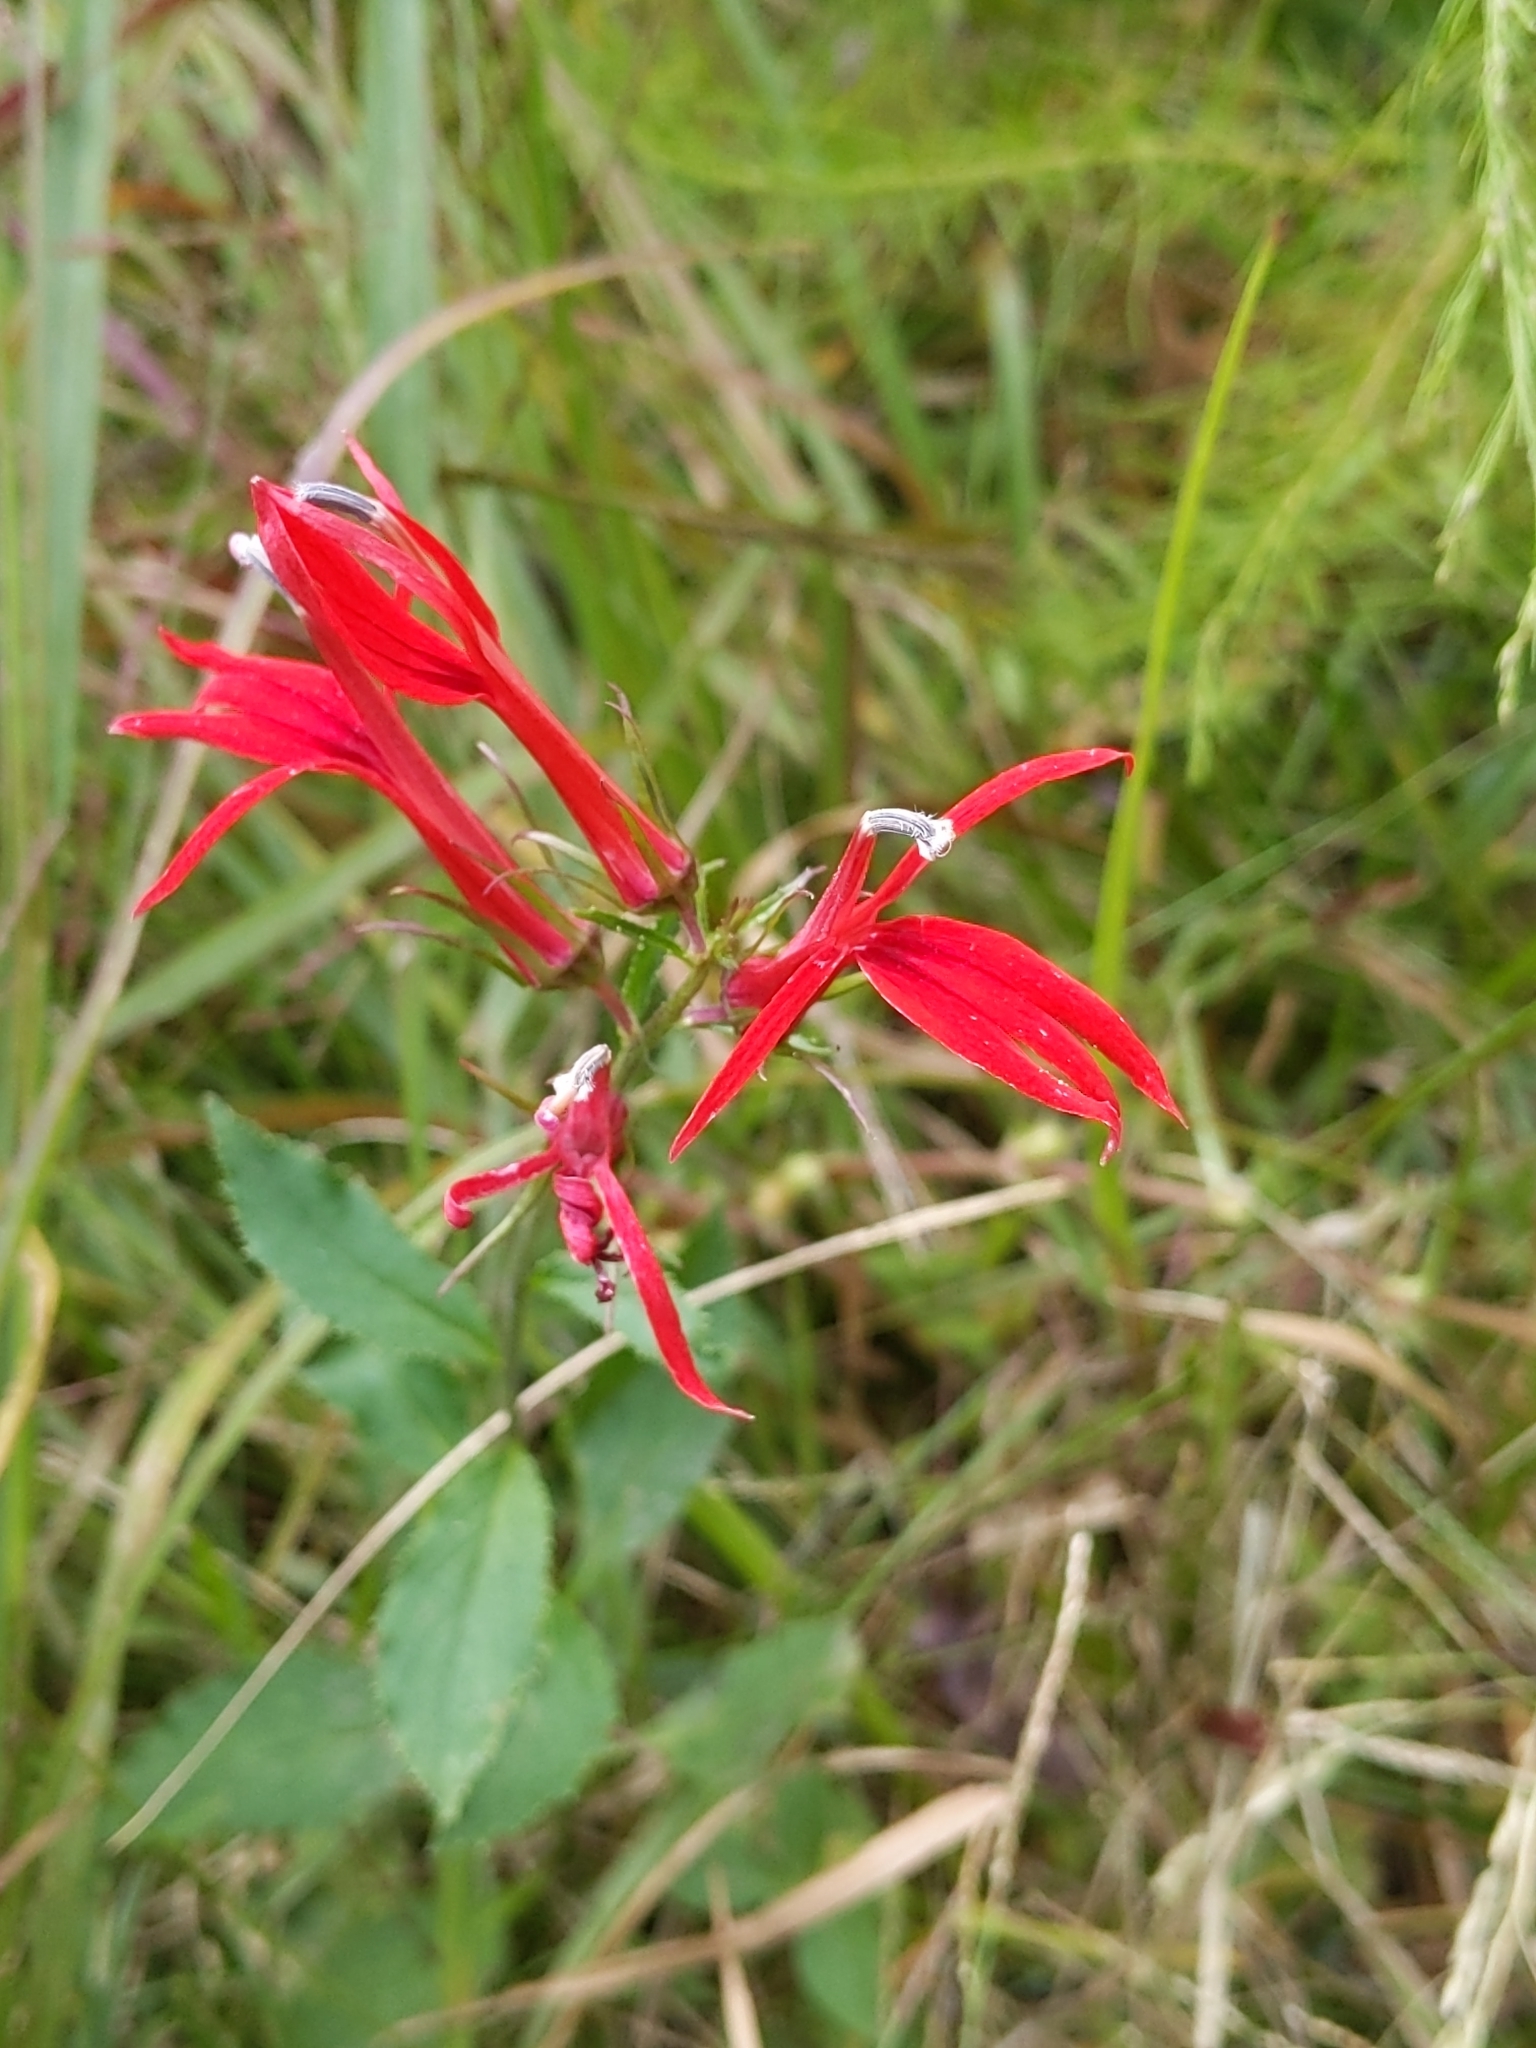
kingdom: Plantae
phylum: Tracheophyta
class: Magnoliopsida
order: Asterales
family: Campanulaceae
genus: Lobelia
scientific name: Lobelia cardinalis
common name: Cardinal flower
